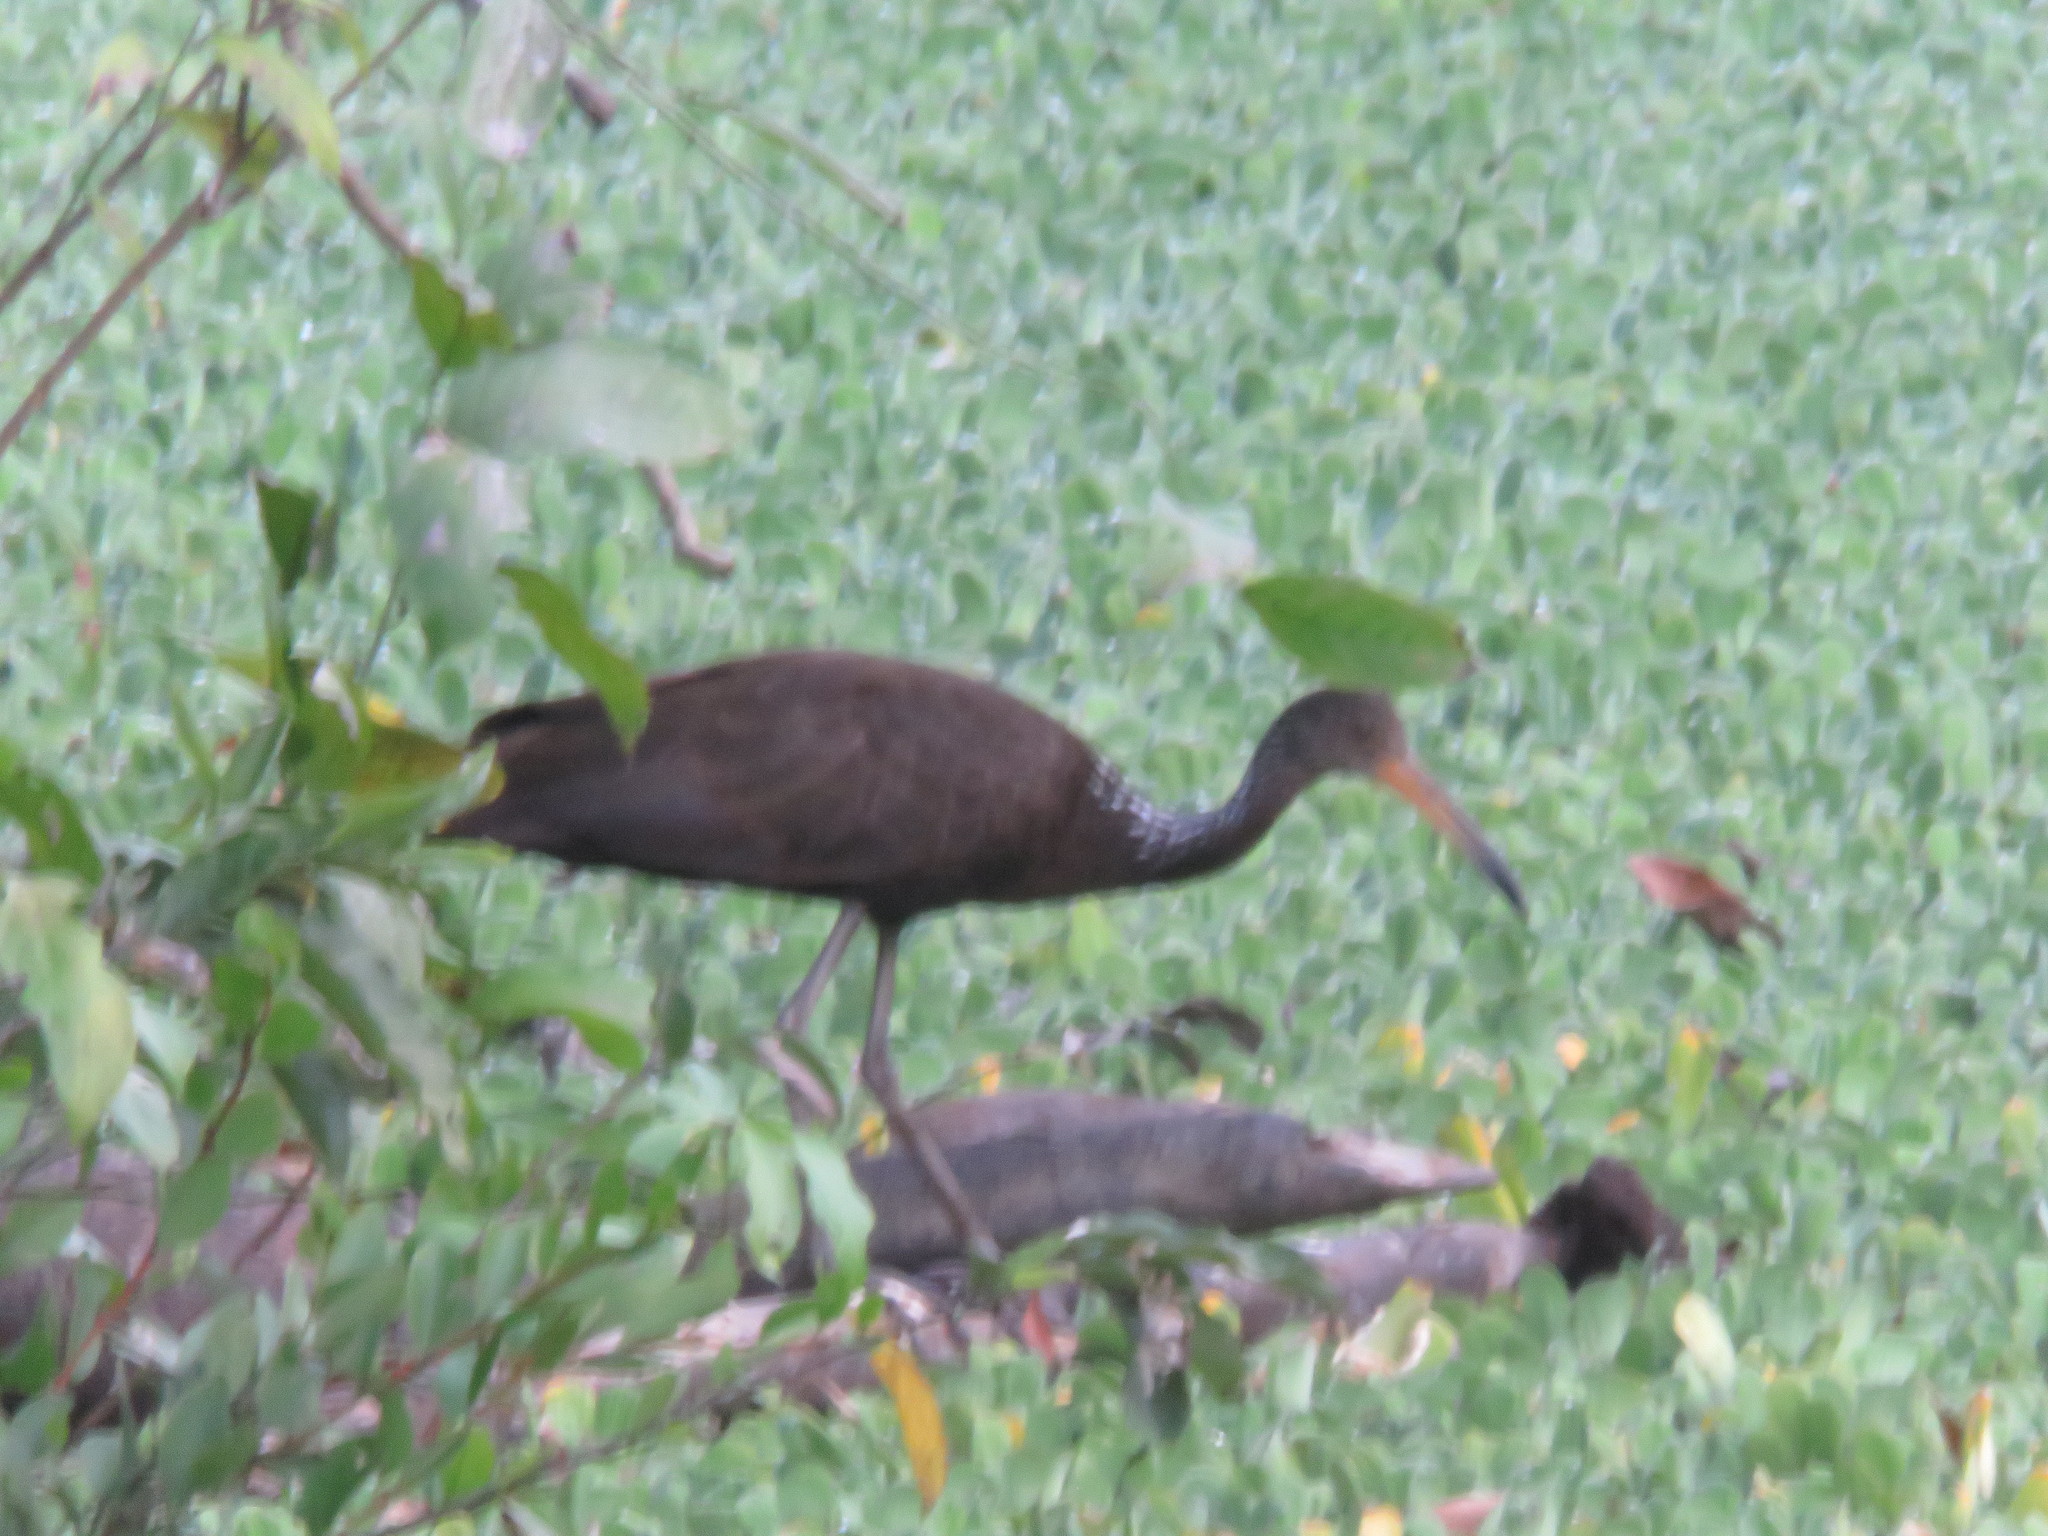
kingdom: Animalia
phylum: Chordata
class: Aves
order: Gruiformes
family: Aramidae
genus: Aramus
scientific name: Aramus guarauna
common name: Limpkin
